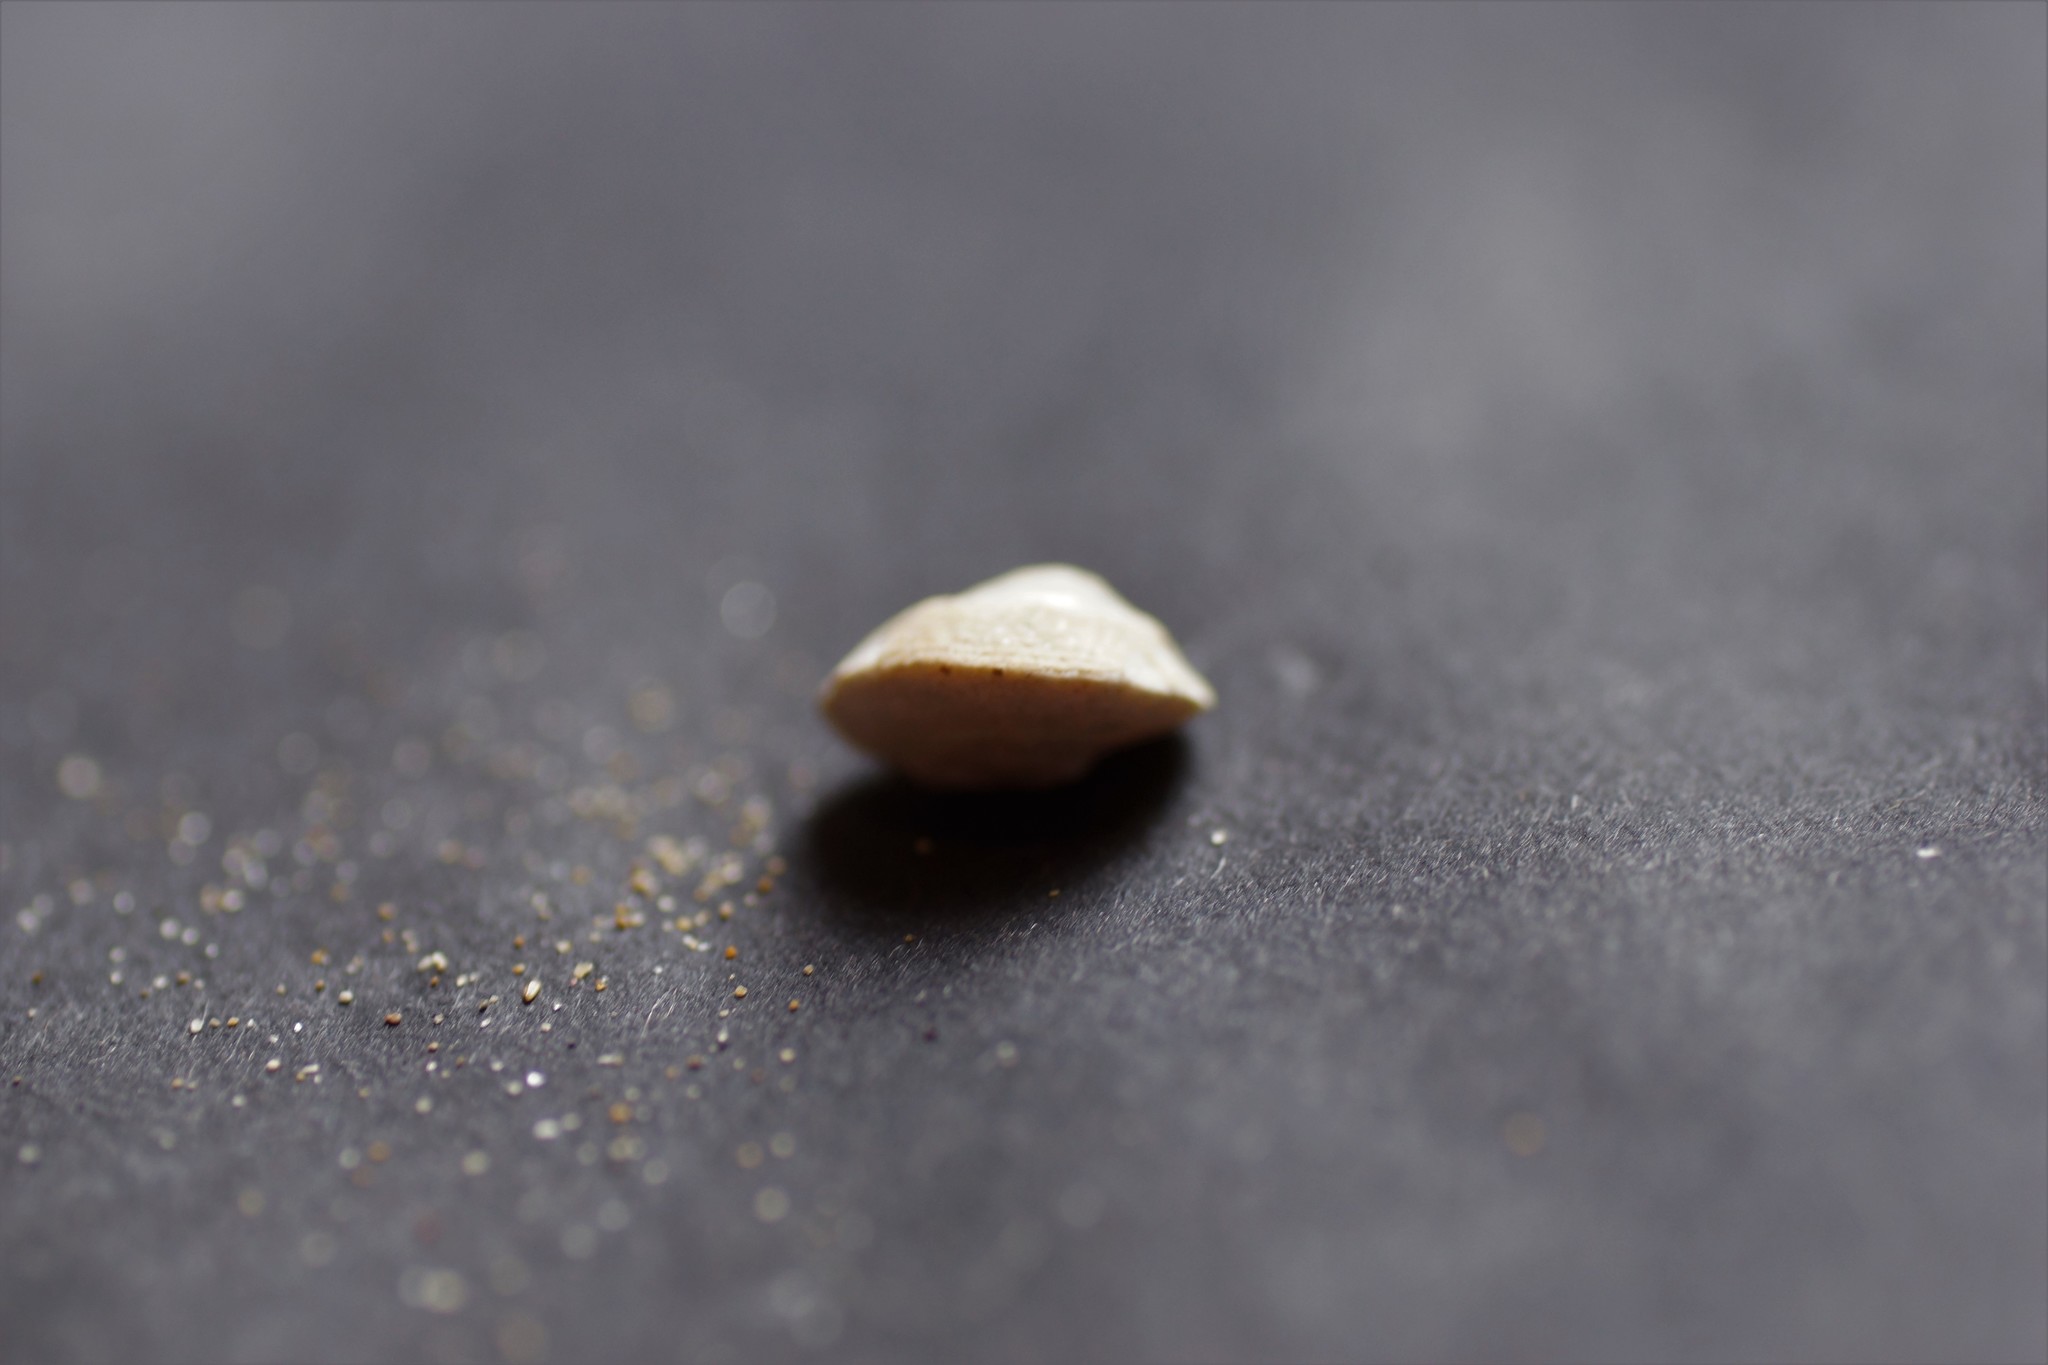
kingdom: Animalia
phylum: Mollusca
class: Gastropoda
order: Trochida
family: Turbinidae
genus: Bellastraea
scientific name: Bellastraea aurea
